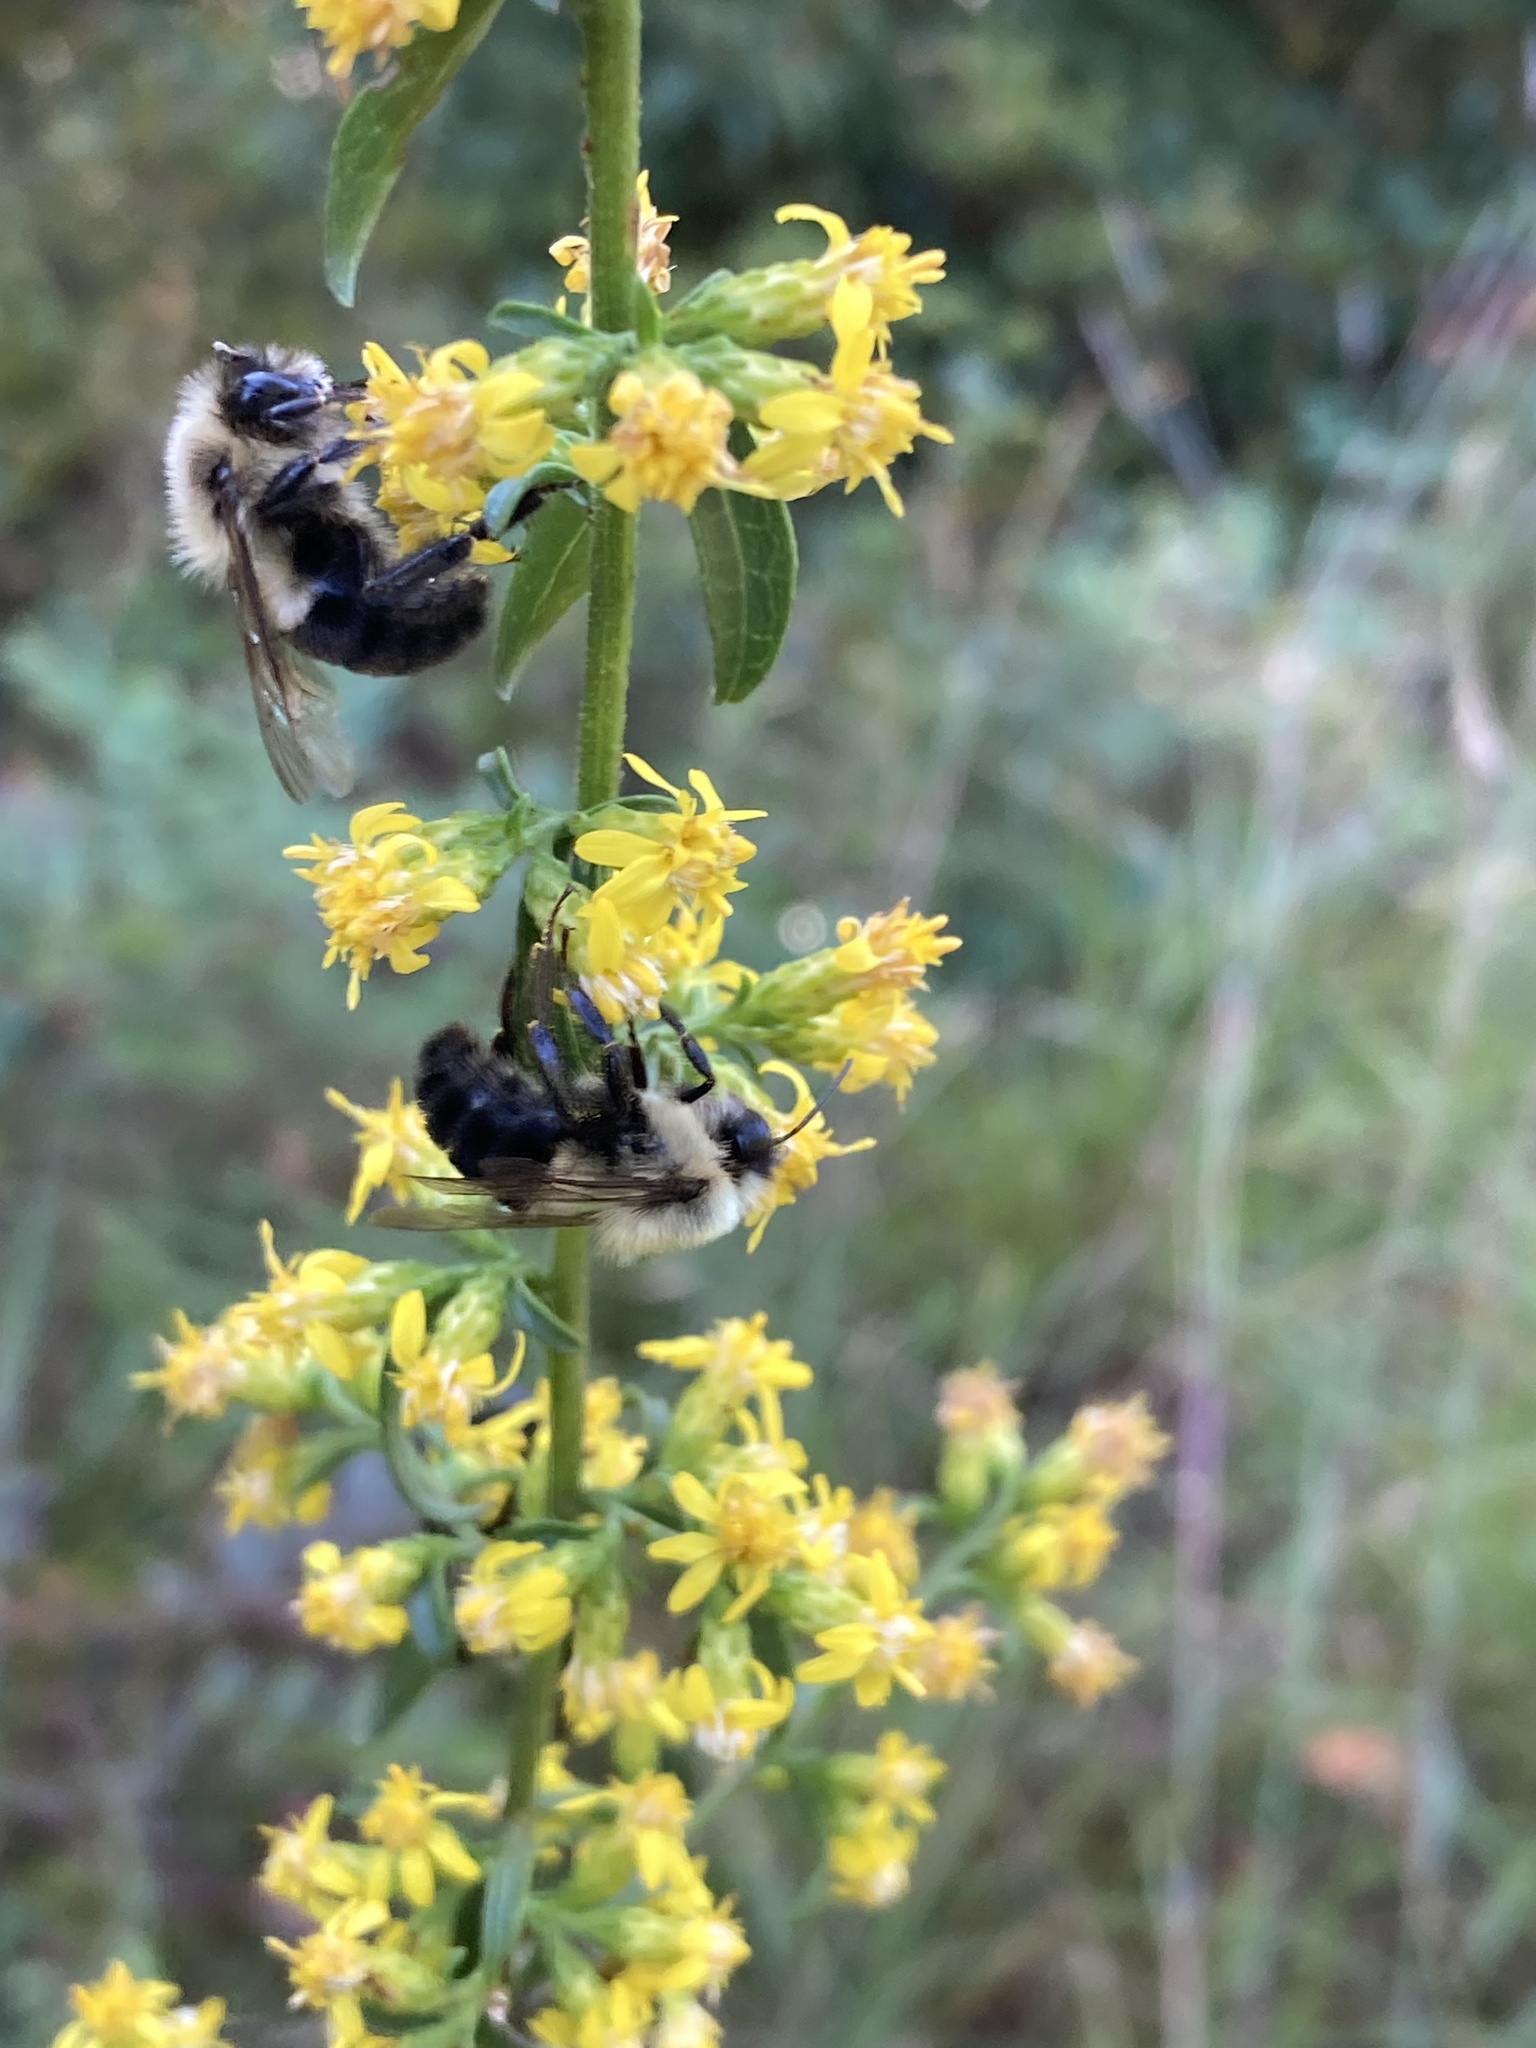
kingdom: Animalia
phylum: Arthropoda
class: Insecta
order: Hymenoptera
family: Apidae
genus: Bombus
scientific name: Bombus impatiens
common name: Common eastern bumble bee
